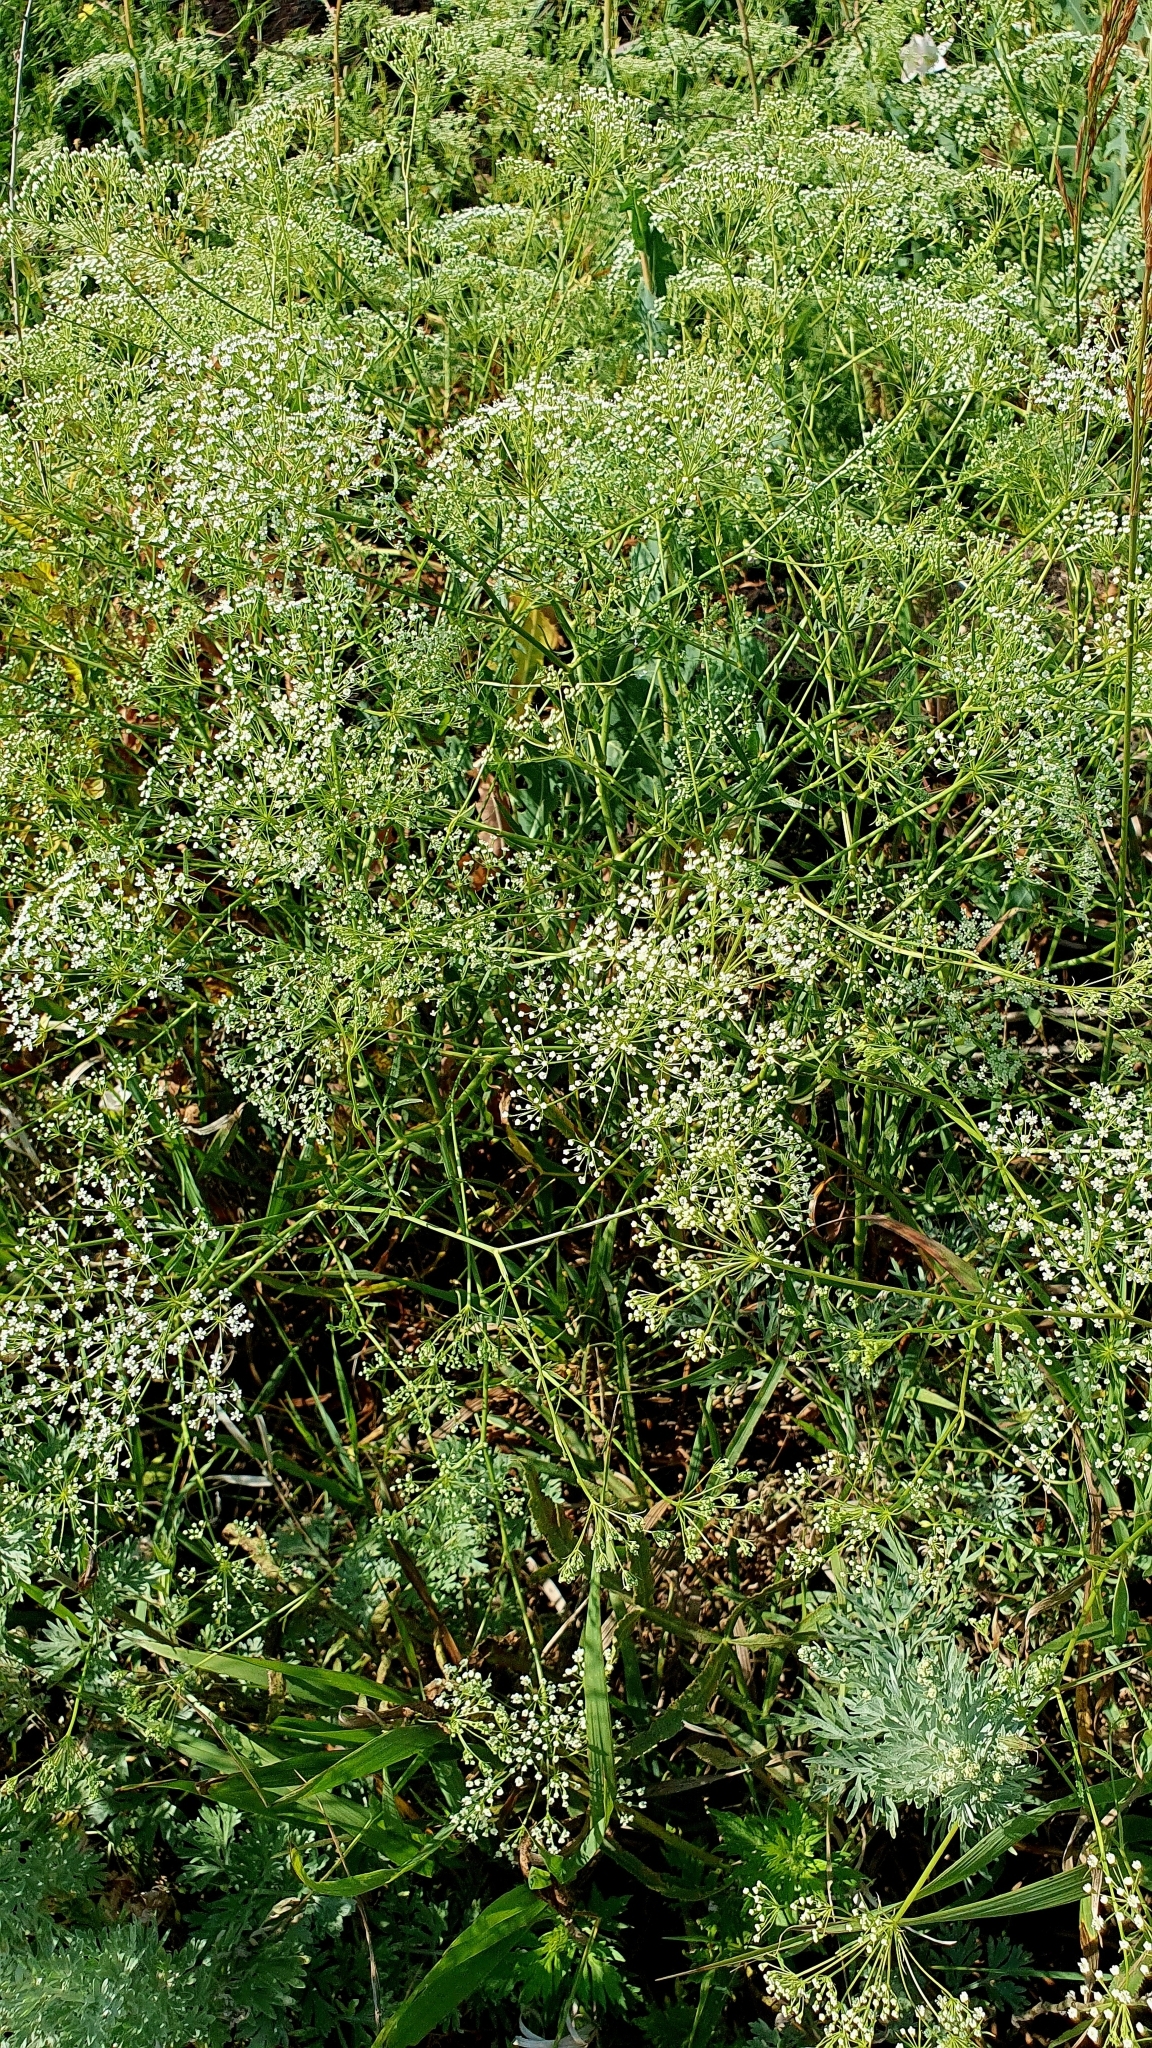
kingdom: Plantae
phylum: Tracheophyta
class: Magnoliopsida
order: Apiales
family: Apiaceae
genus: Falcaria
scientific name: Falcaria vulgaris
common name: Longleaf
